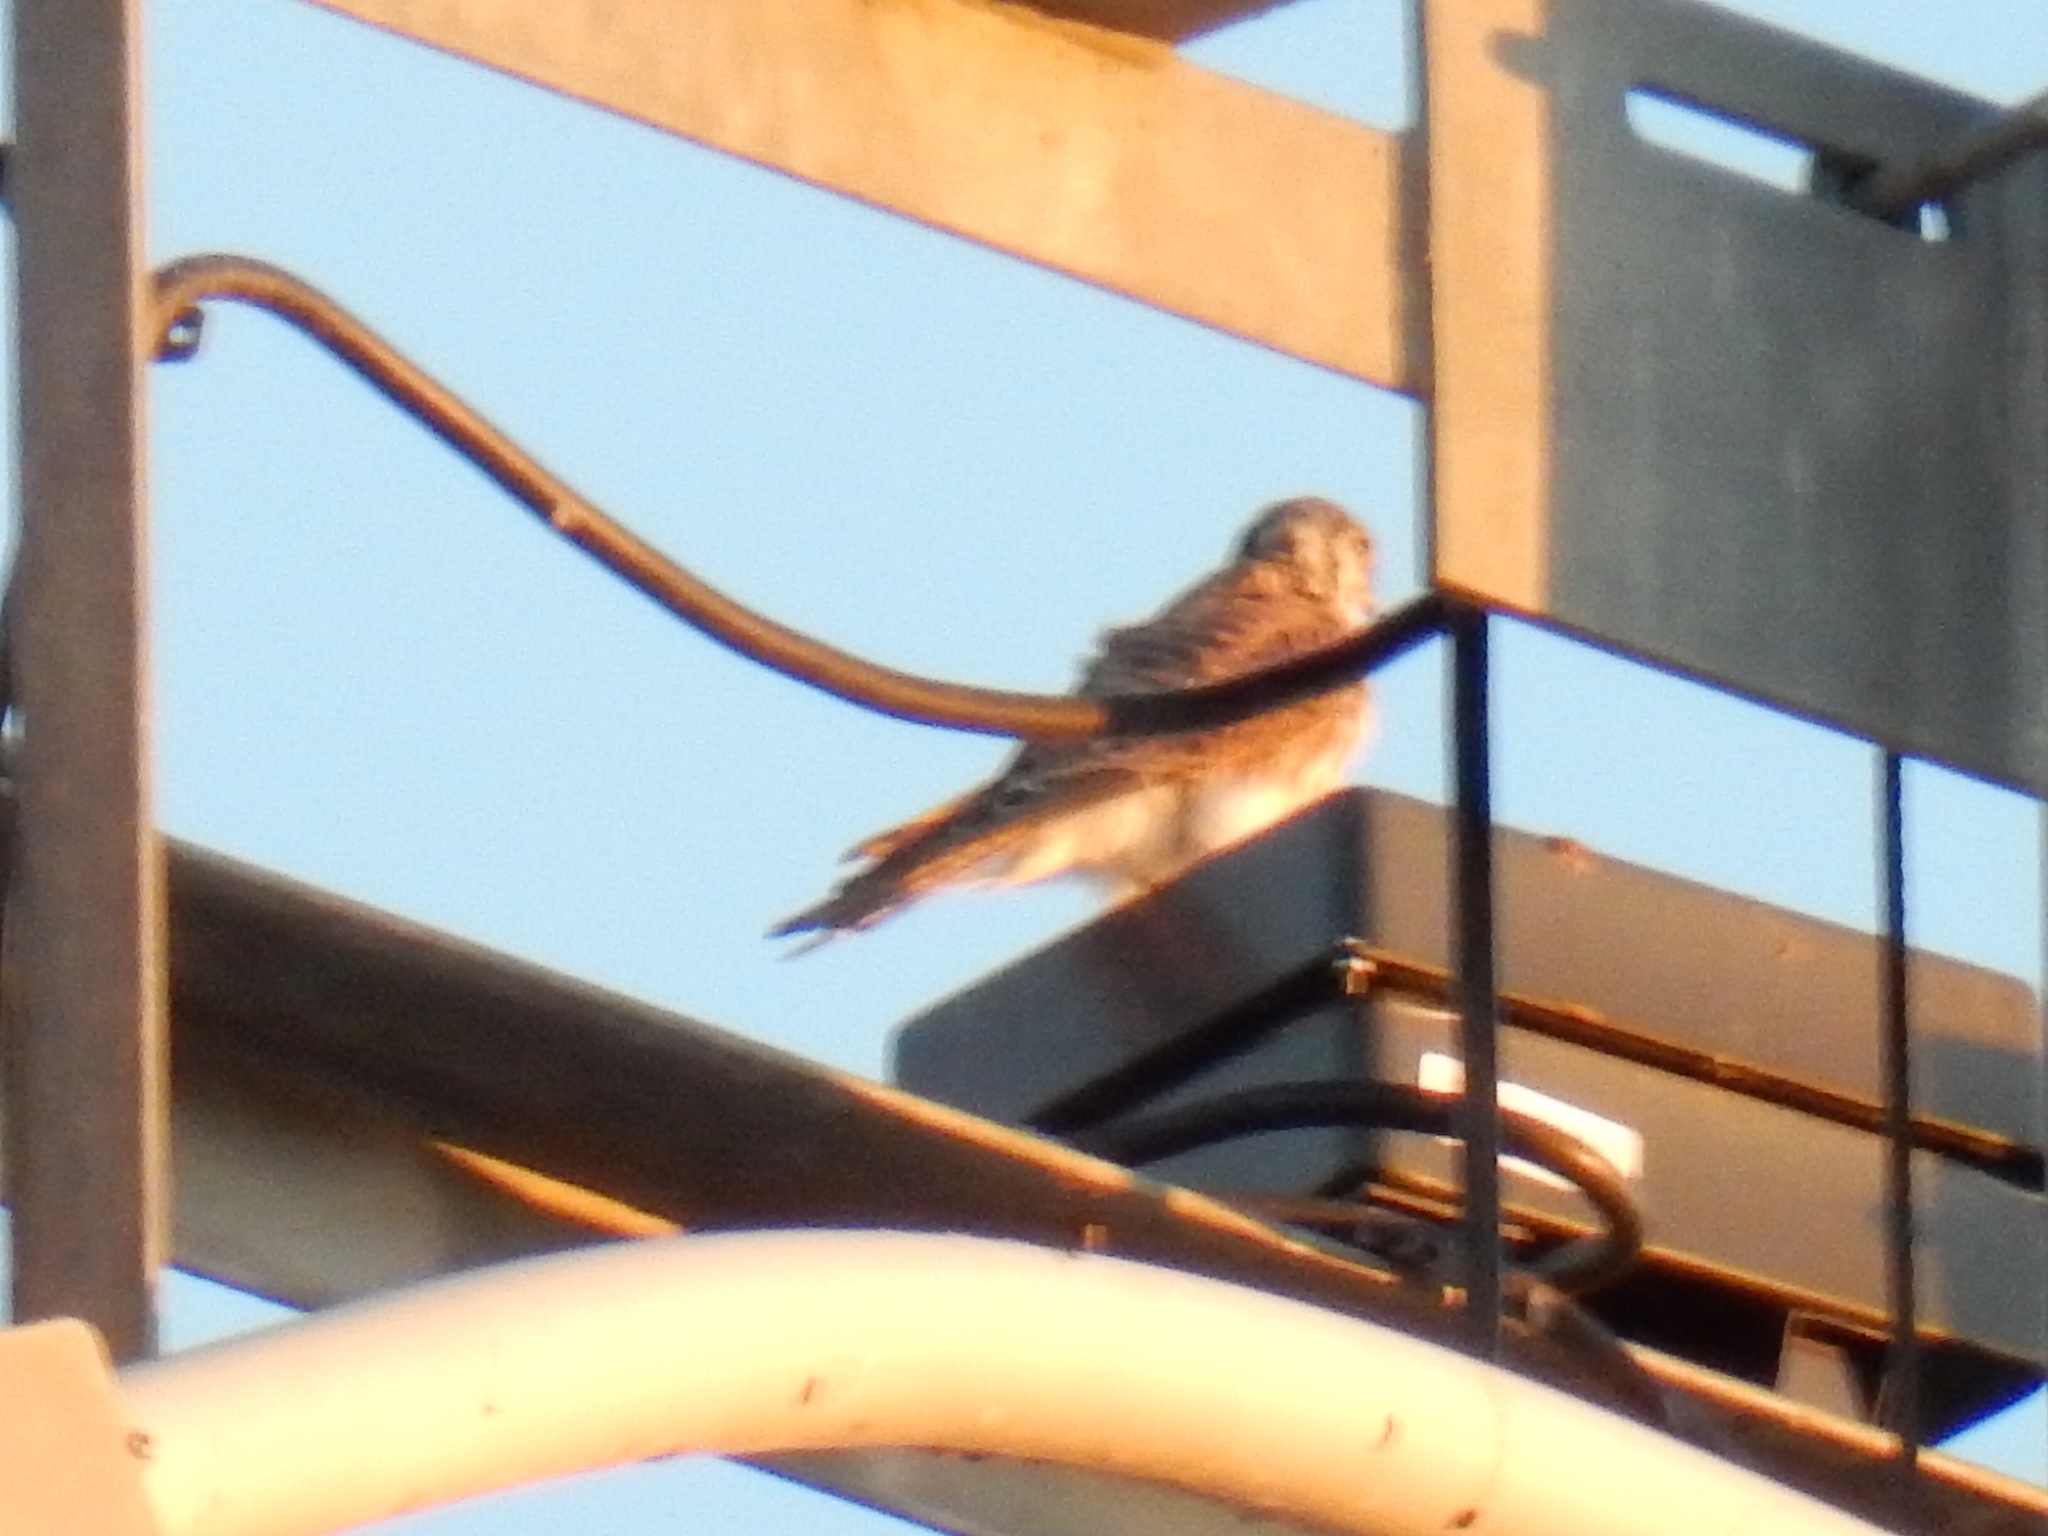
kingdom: Animalia
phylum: Chordata
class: Aves
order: Falconiformes
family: Falconidae
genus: Falco
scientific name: Falco sparverius
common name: American kestrel
